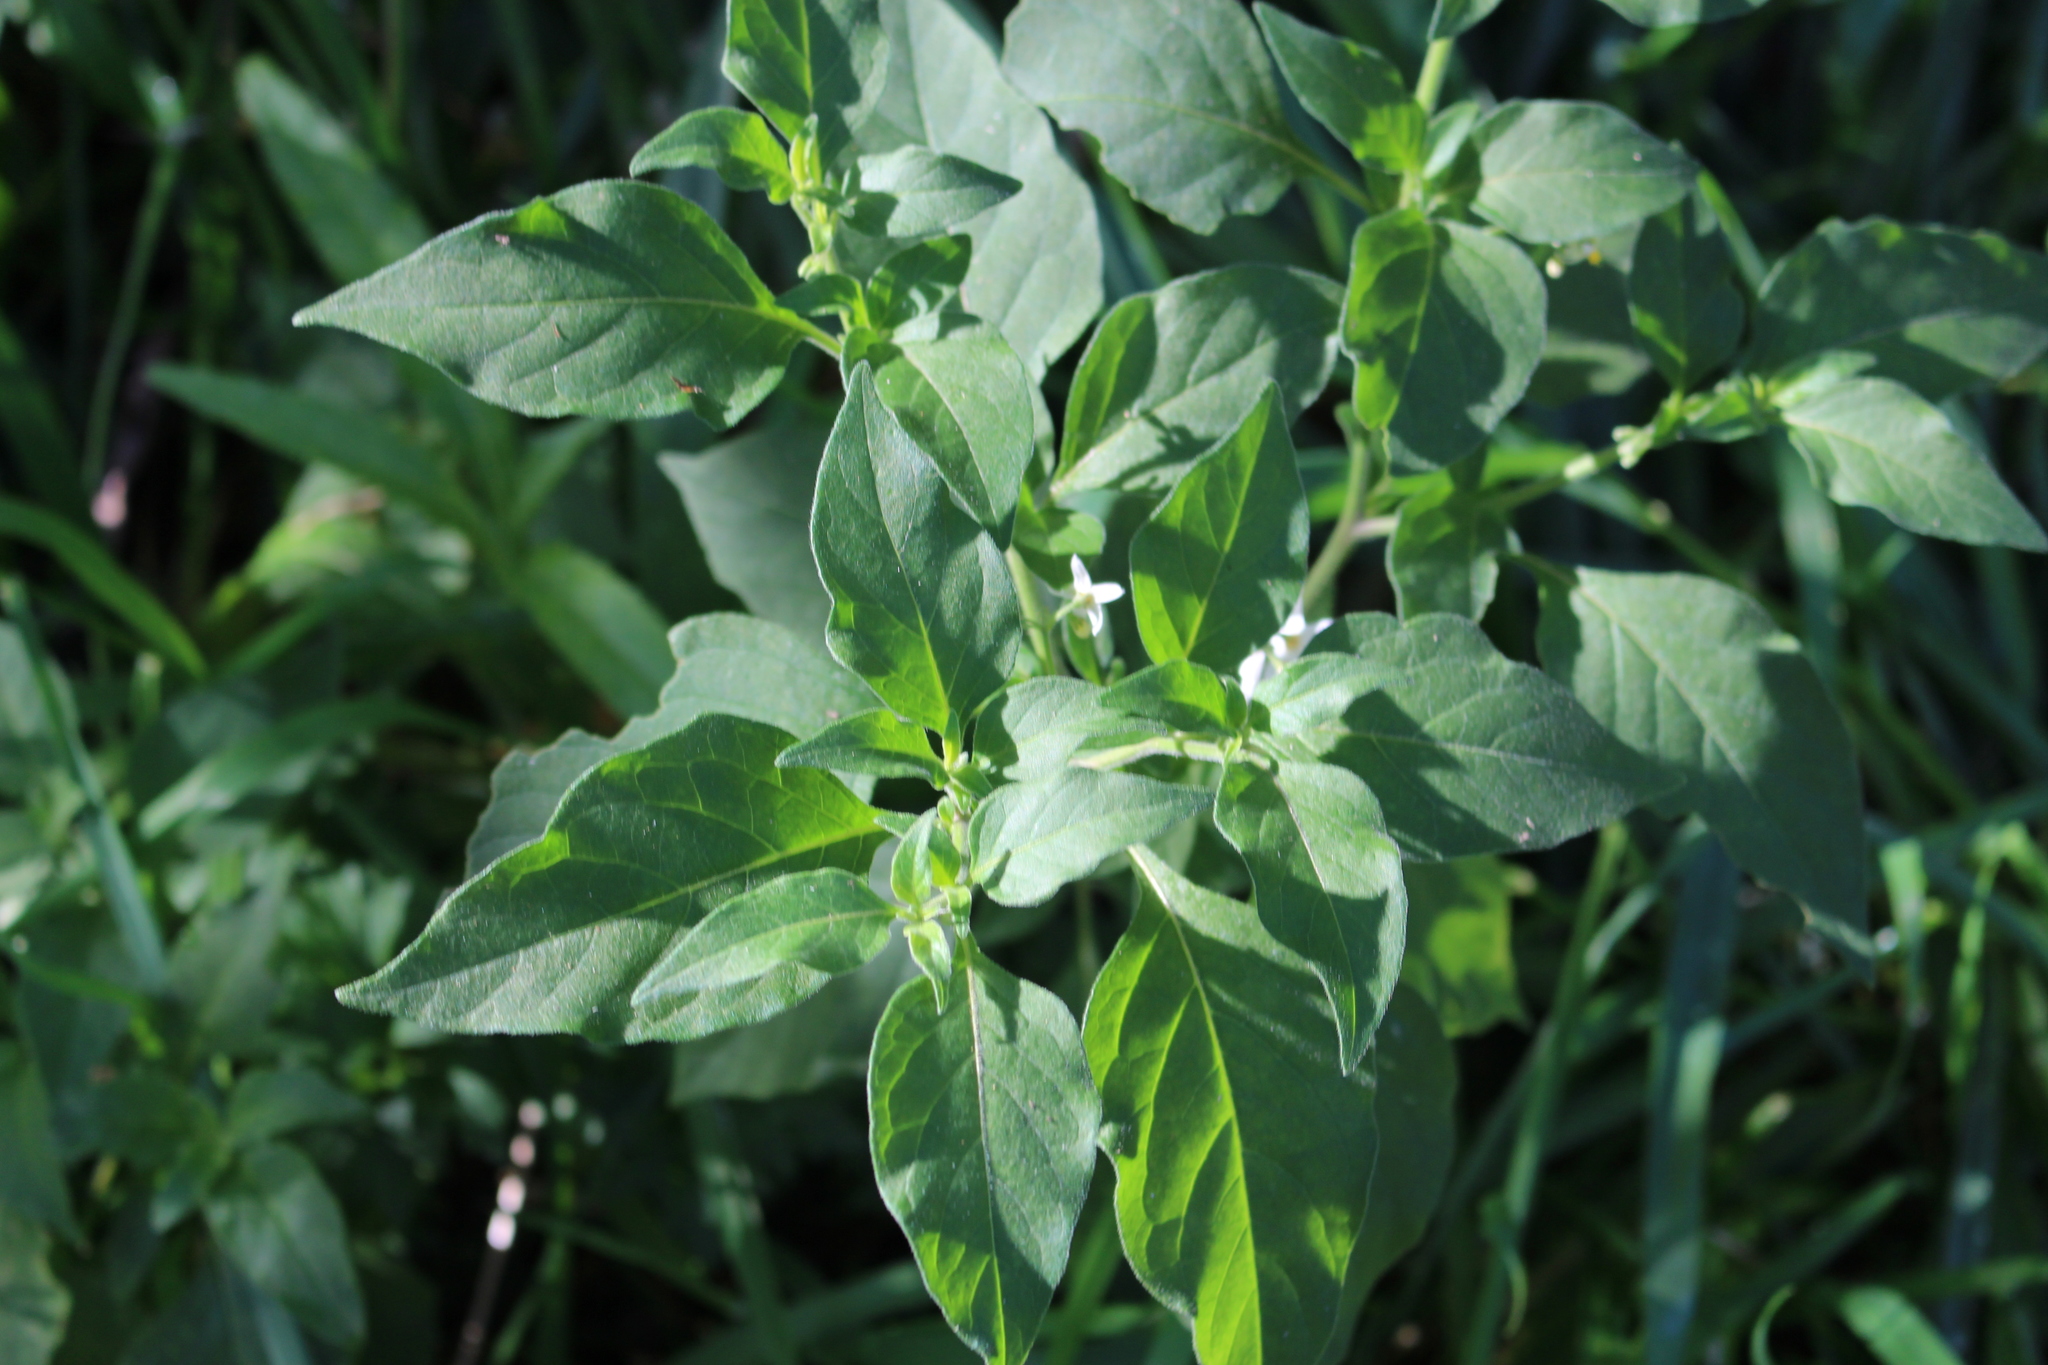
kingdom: Plantae
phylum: Tracheophyta
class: Magnoliopsida
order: Solanales
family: Solanaceae
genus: Solanum
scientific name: Solanum chenopodioides
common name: Tall nightshade
